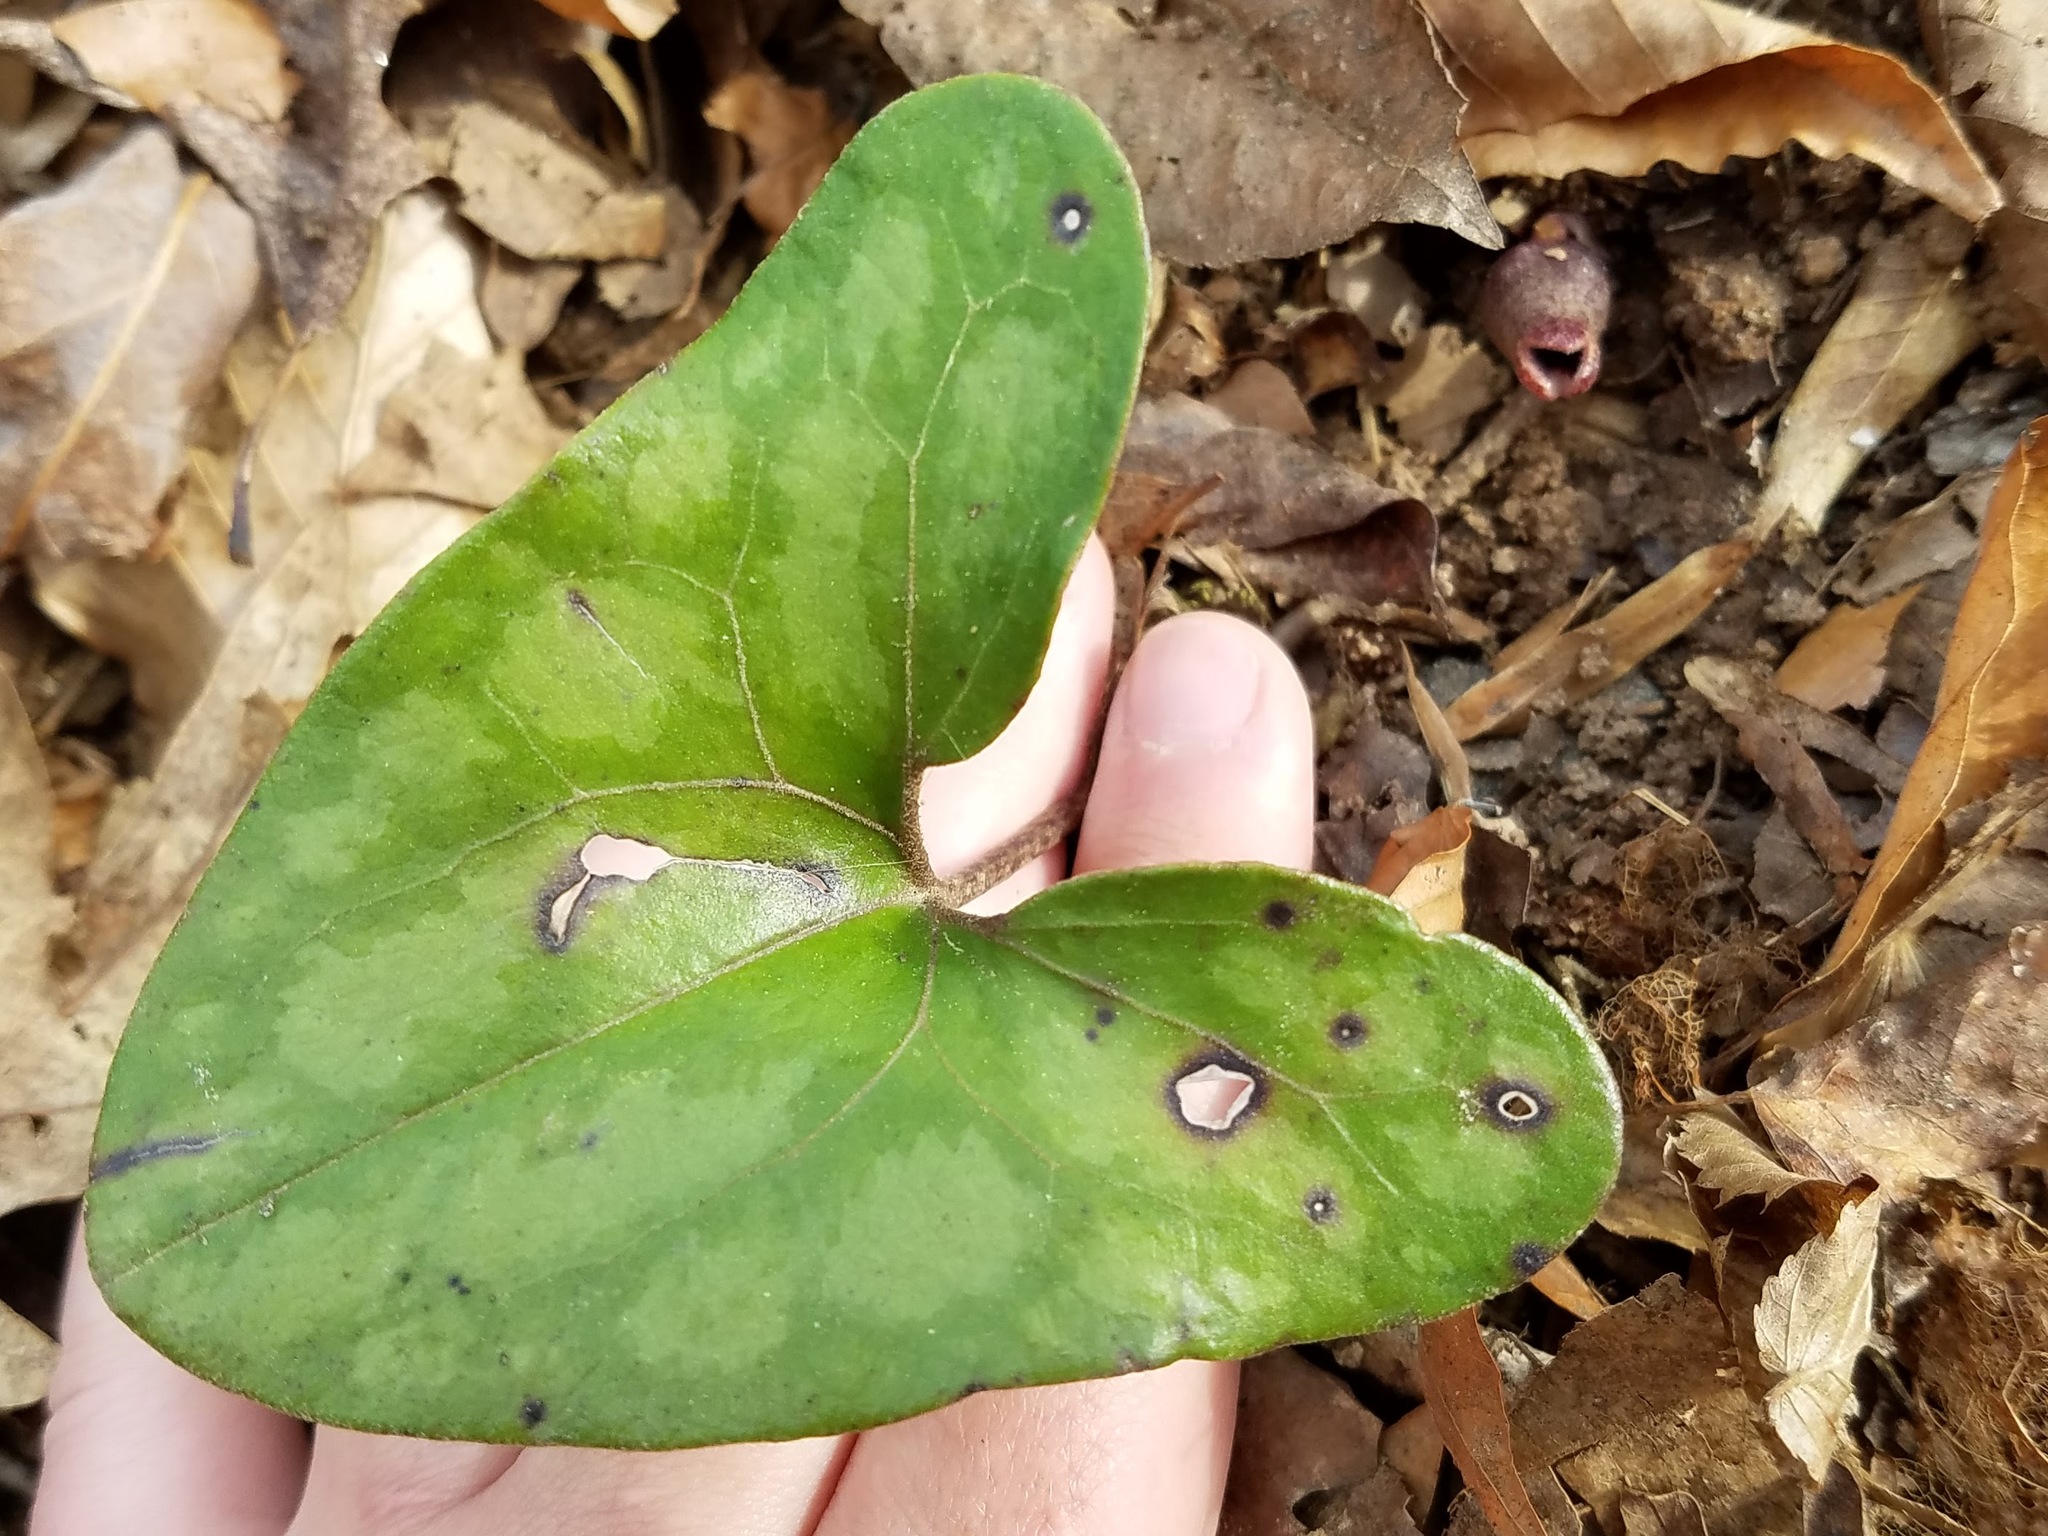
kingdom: Plantae
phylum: Tracheophyta
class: Magnoliopsida
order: Piperales
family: Aristolochiaceae
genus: Hexastylis
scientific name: Hexastylis arifolia
